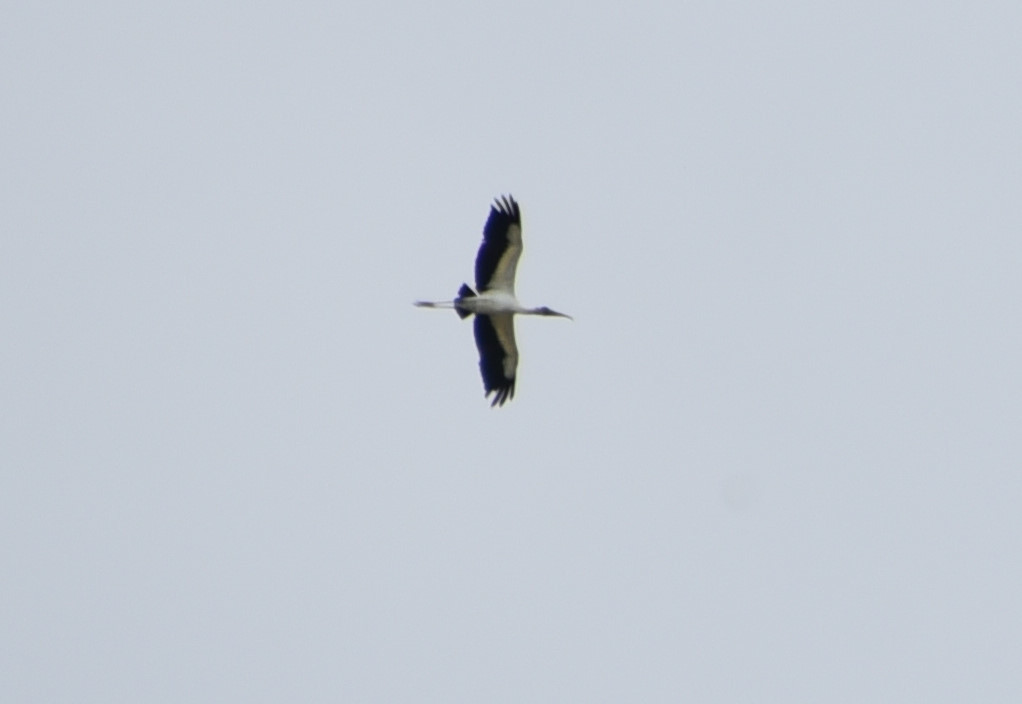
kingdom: Animalia
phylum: Chordata
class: Aves
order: Ciconiiformes
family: Ciconiidae
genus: Mycteria
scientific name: Mycteria americana
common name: Wood stork
